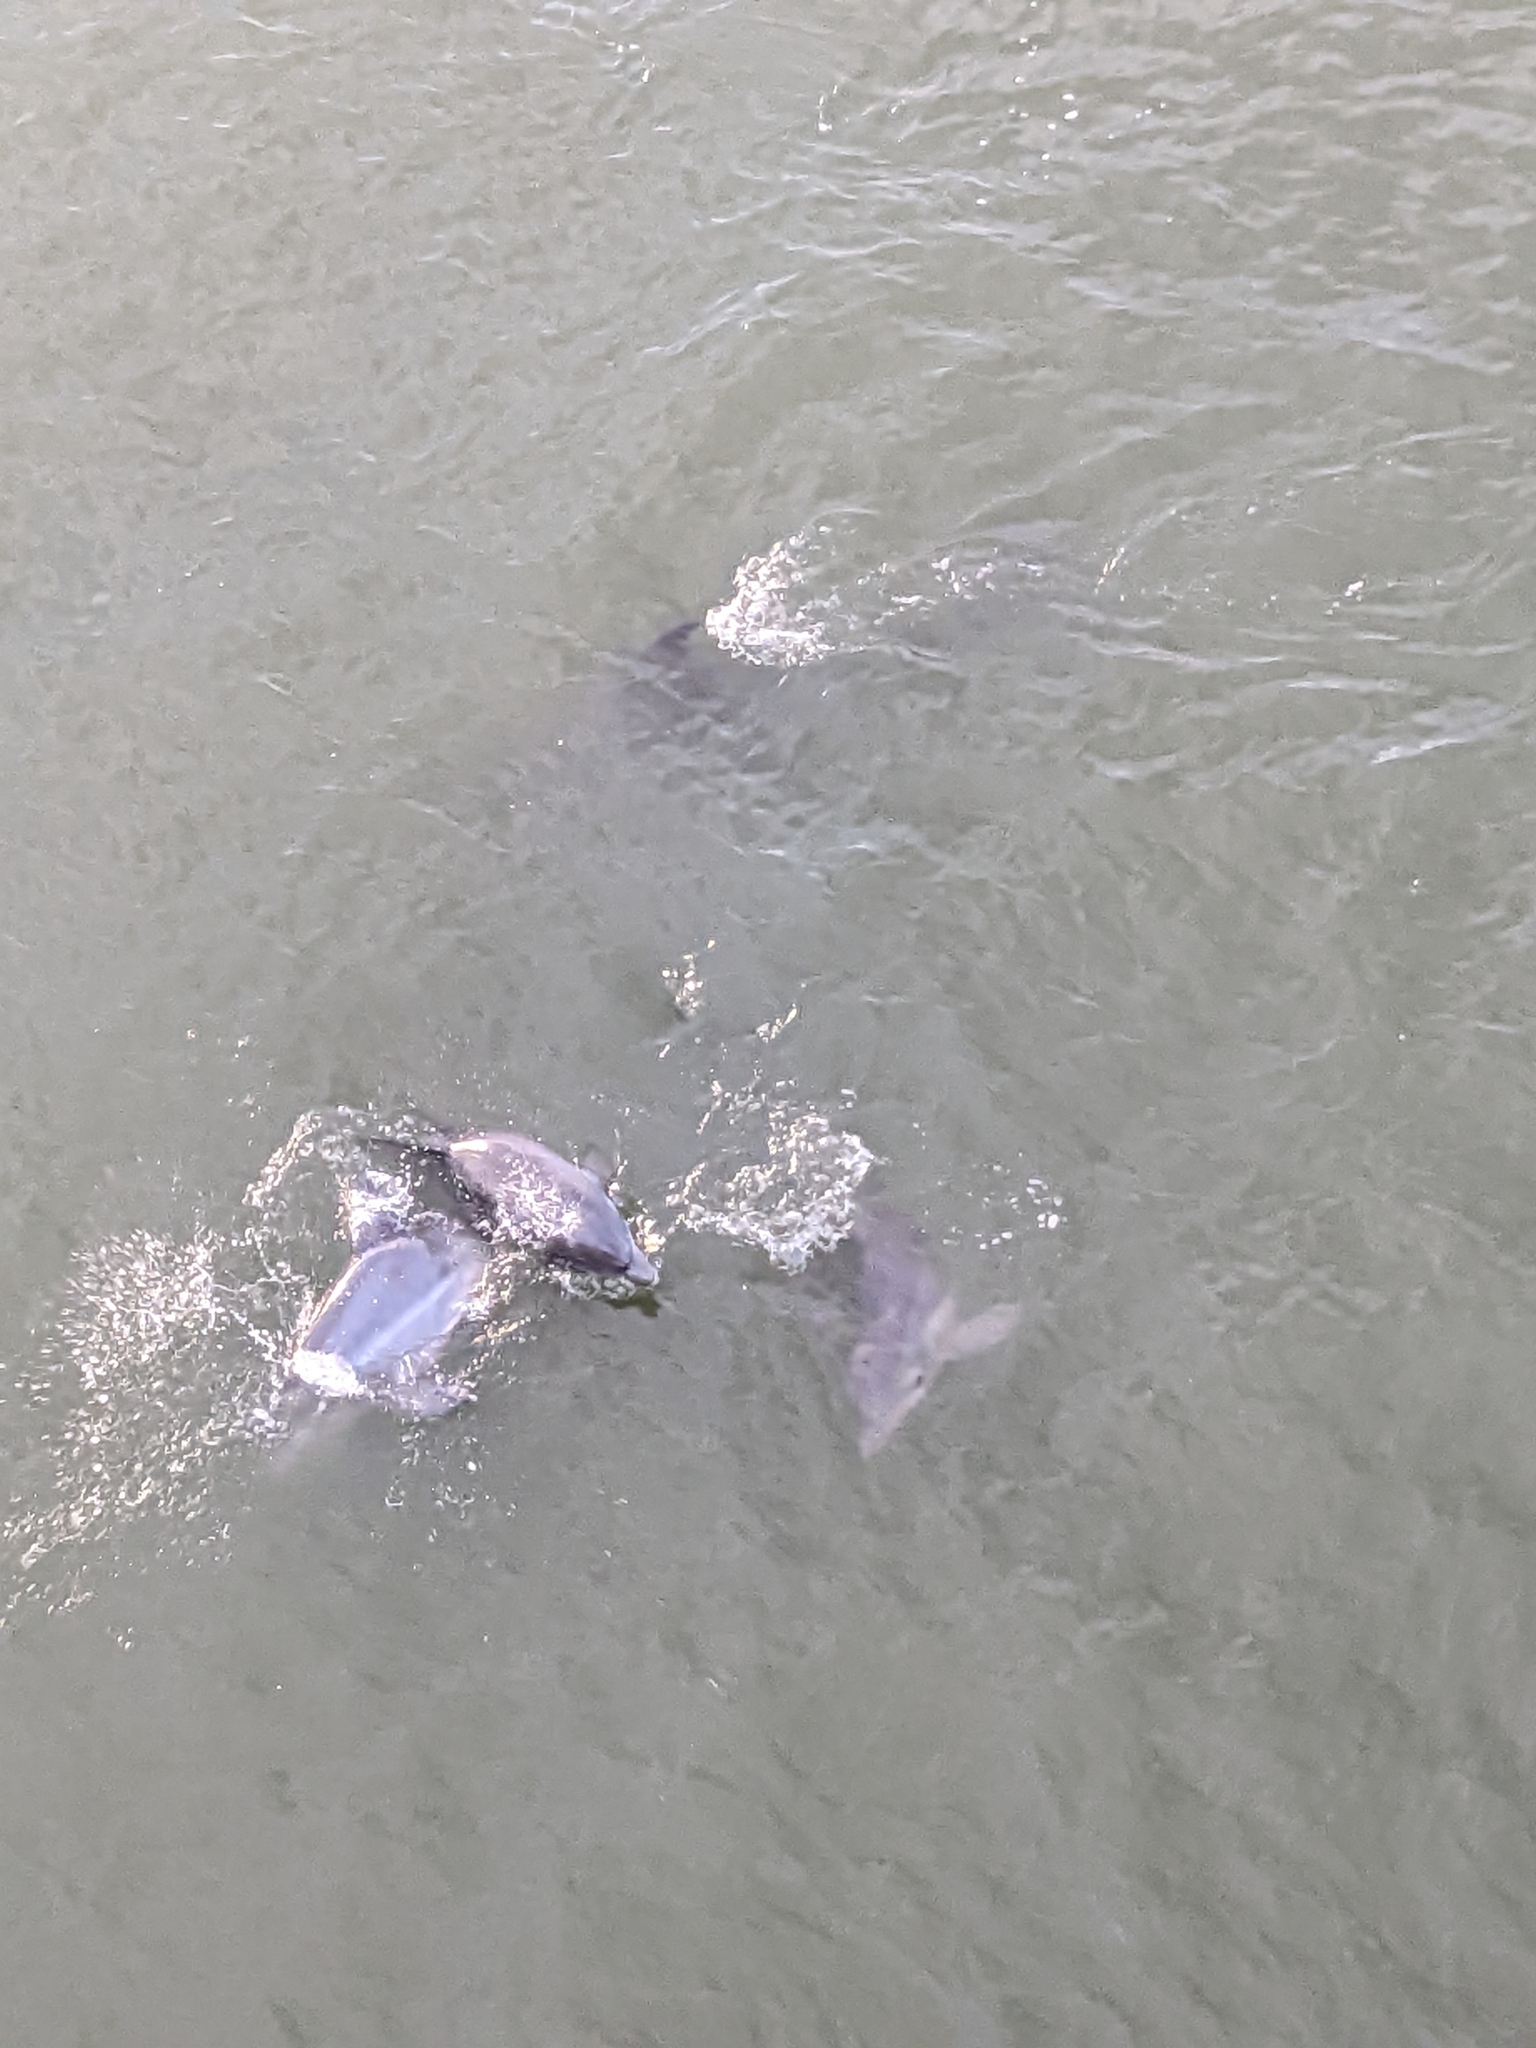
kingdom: Animalia
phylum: Chordata
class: Mammalia
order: Cetacea
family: Delphinidae
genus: Tursiops
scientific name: Tursiops truncatus
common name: Bottlenose dolphin
